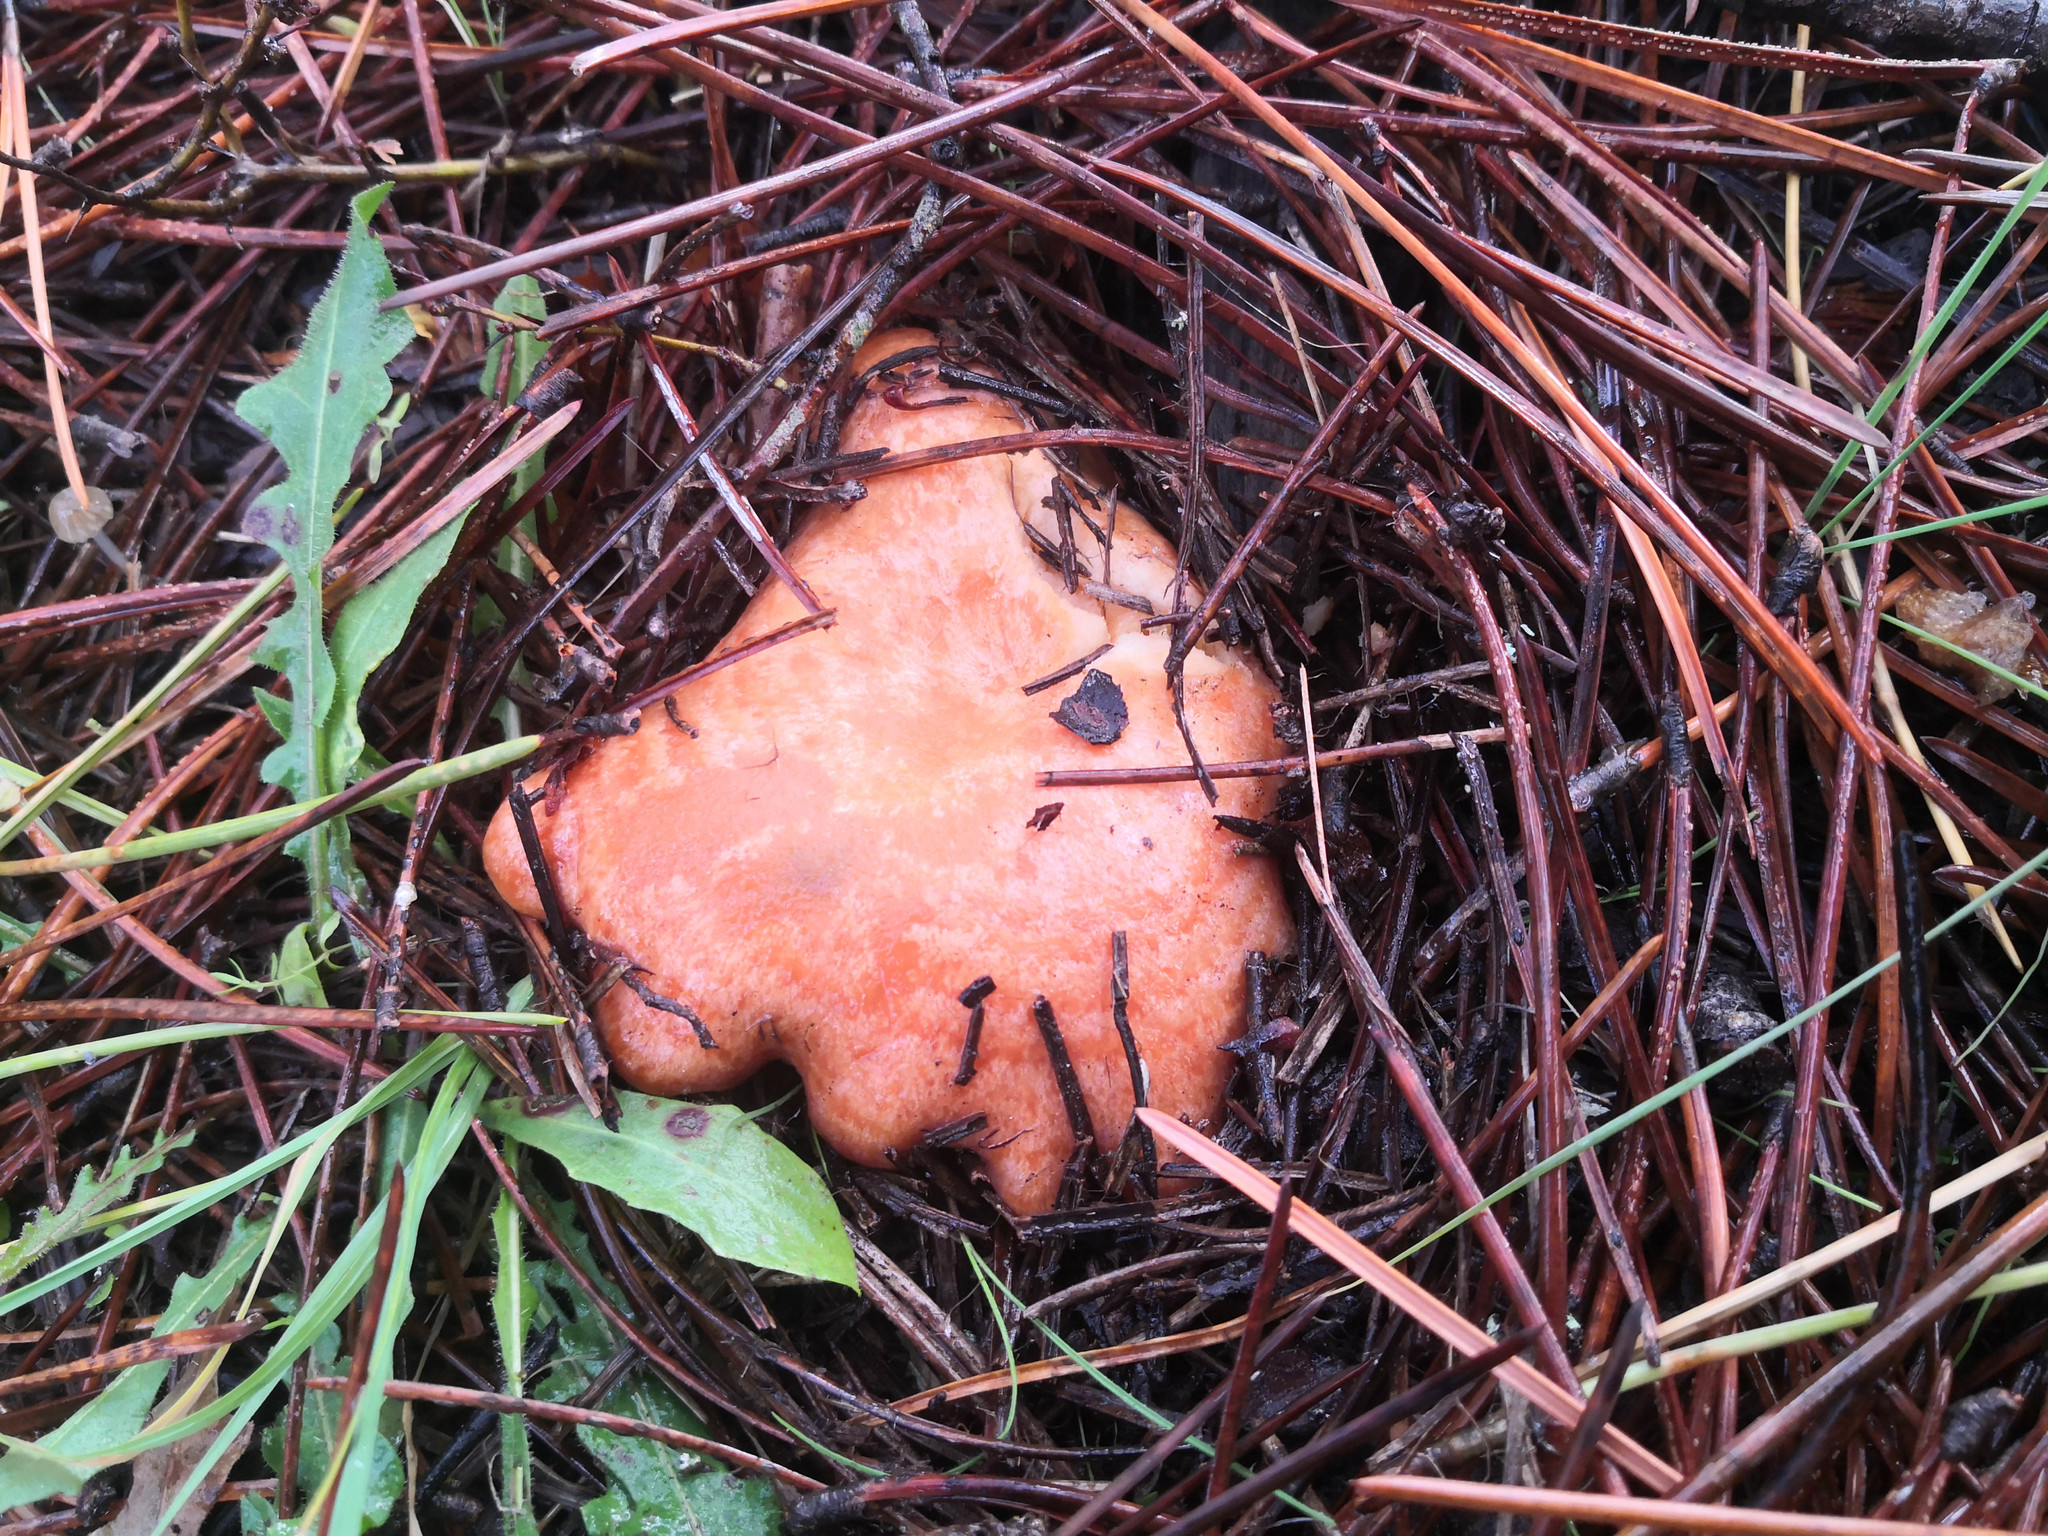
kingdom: Fungi
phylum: Basidiomycota
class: Agaricomycetes
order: Russulales
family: Russulaceae
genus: Lactarius
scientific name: Lactarius deliciosus
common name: Saffron milk-cap
